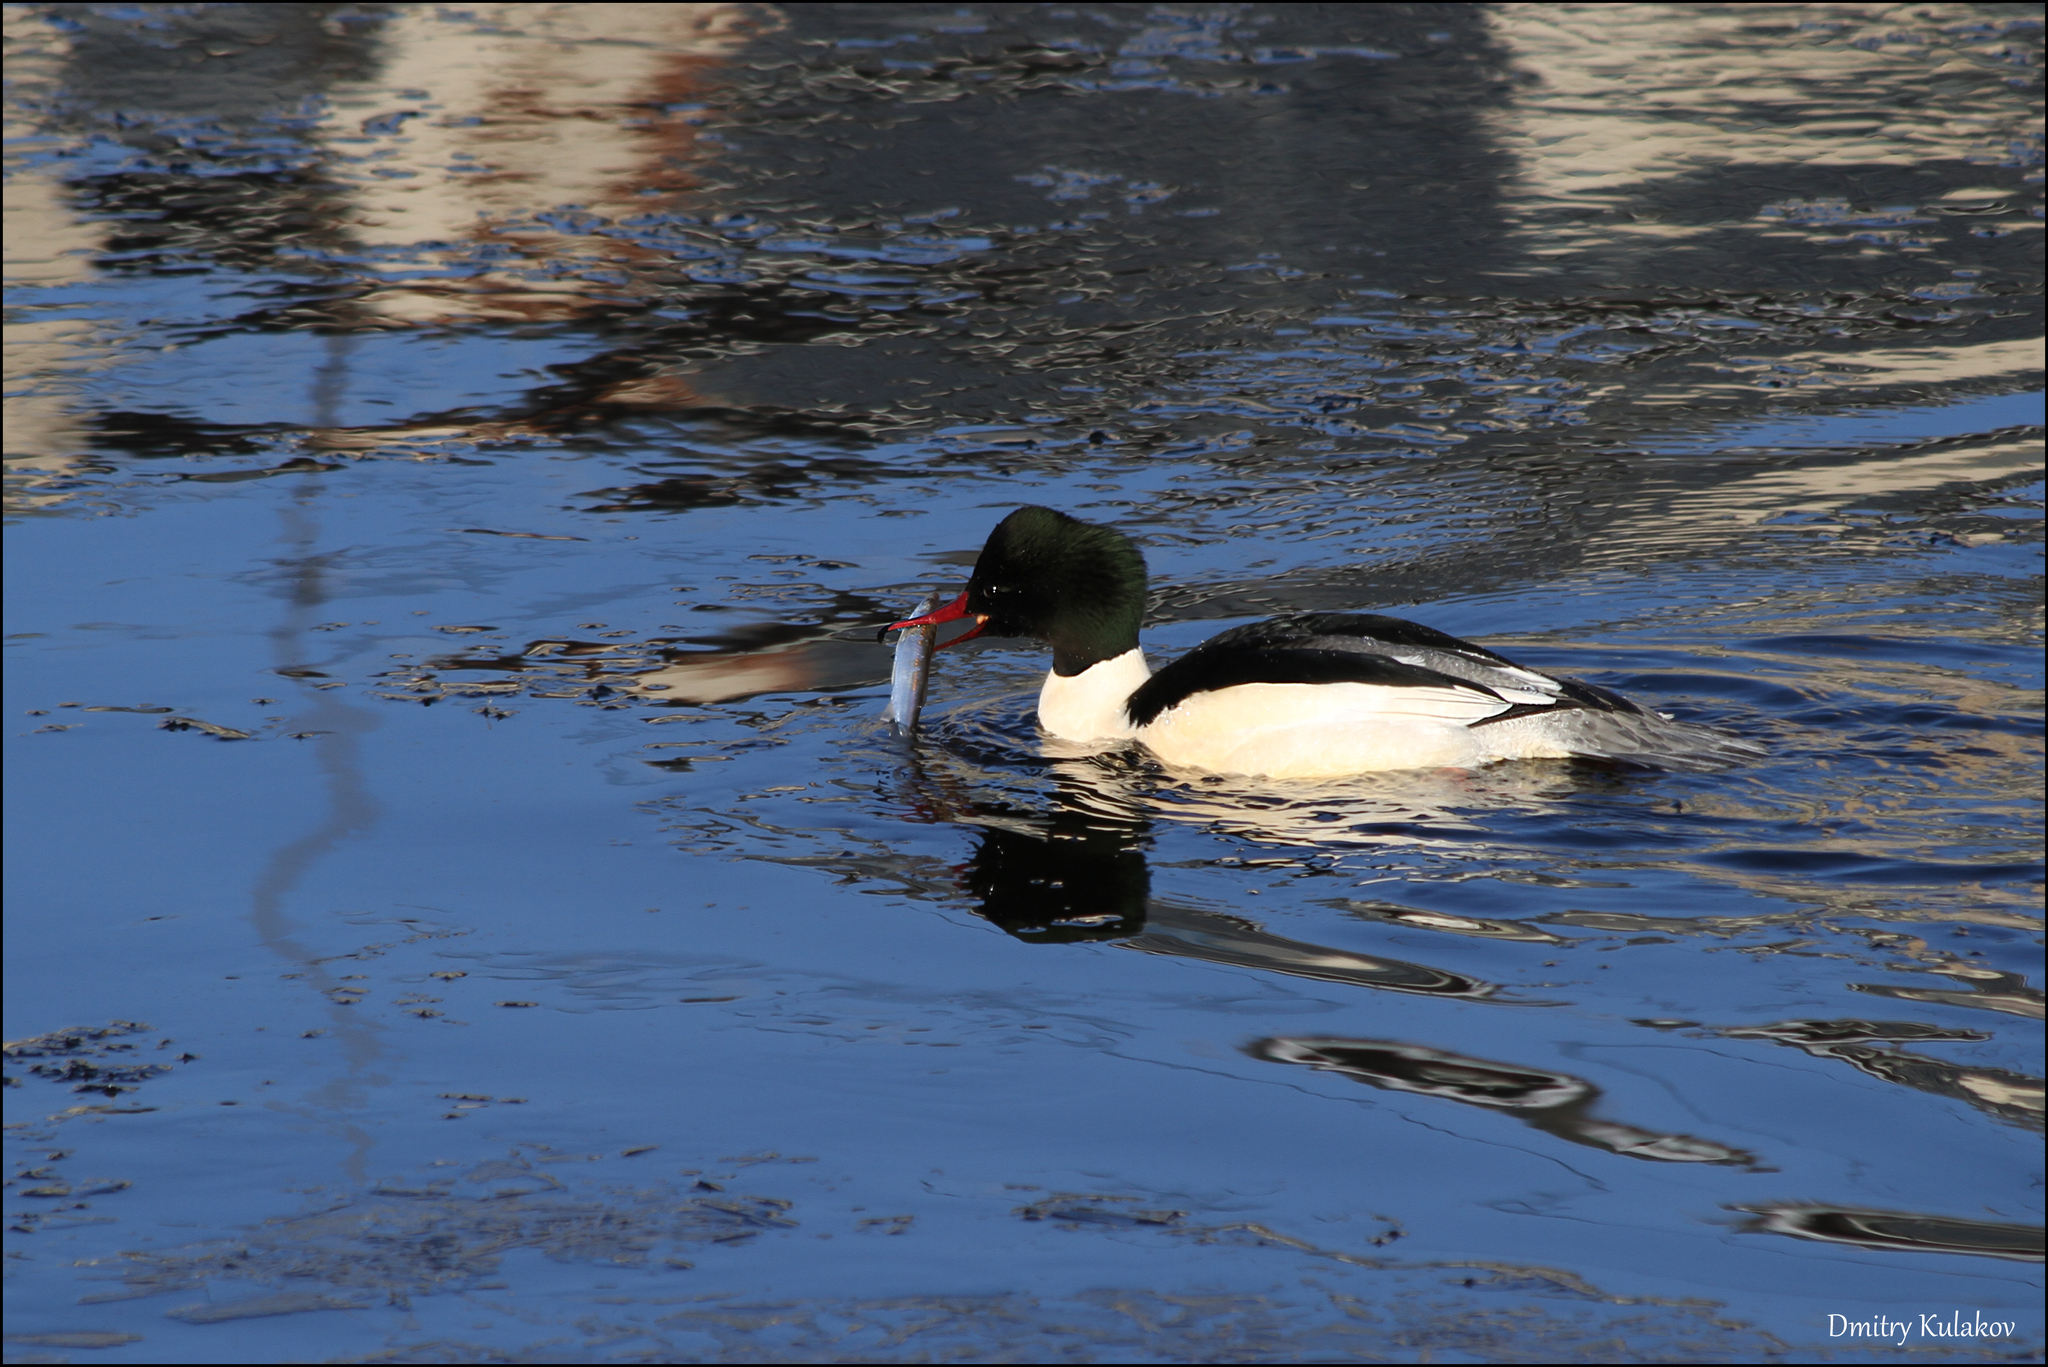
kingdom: Animalia
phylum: Chordata
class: Aves
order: Anseriformes
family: Anatidae
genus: Mergus
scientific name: Mergus merganser
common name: Common merganser
